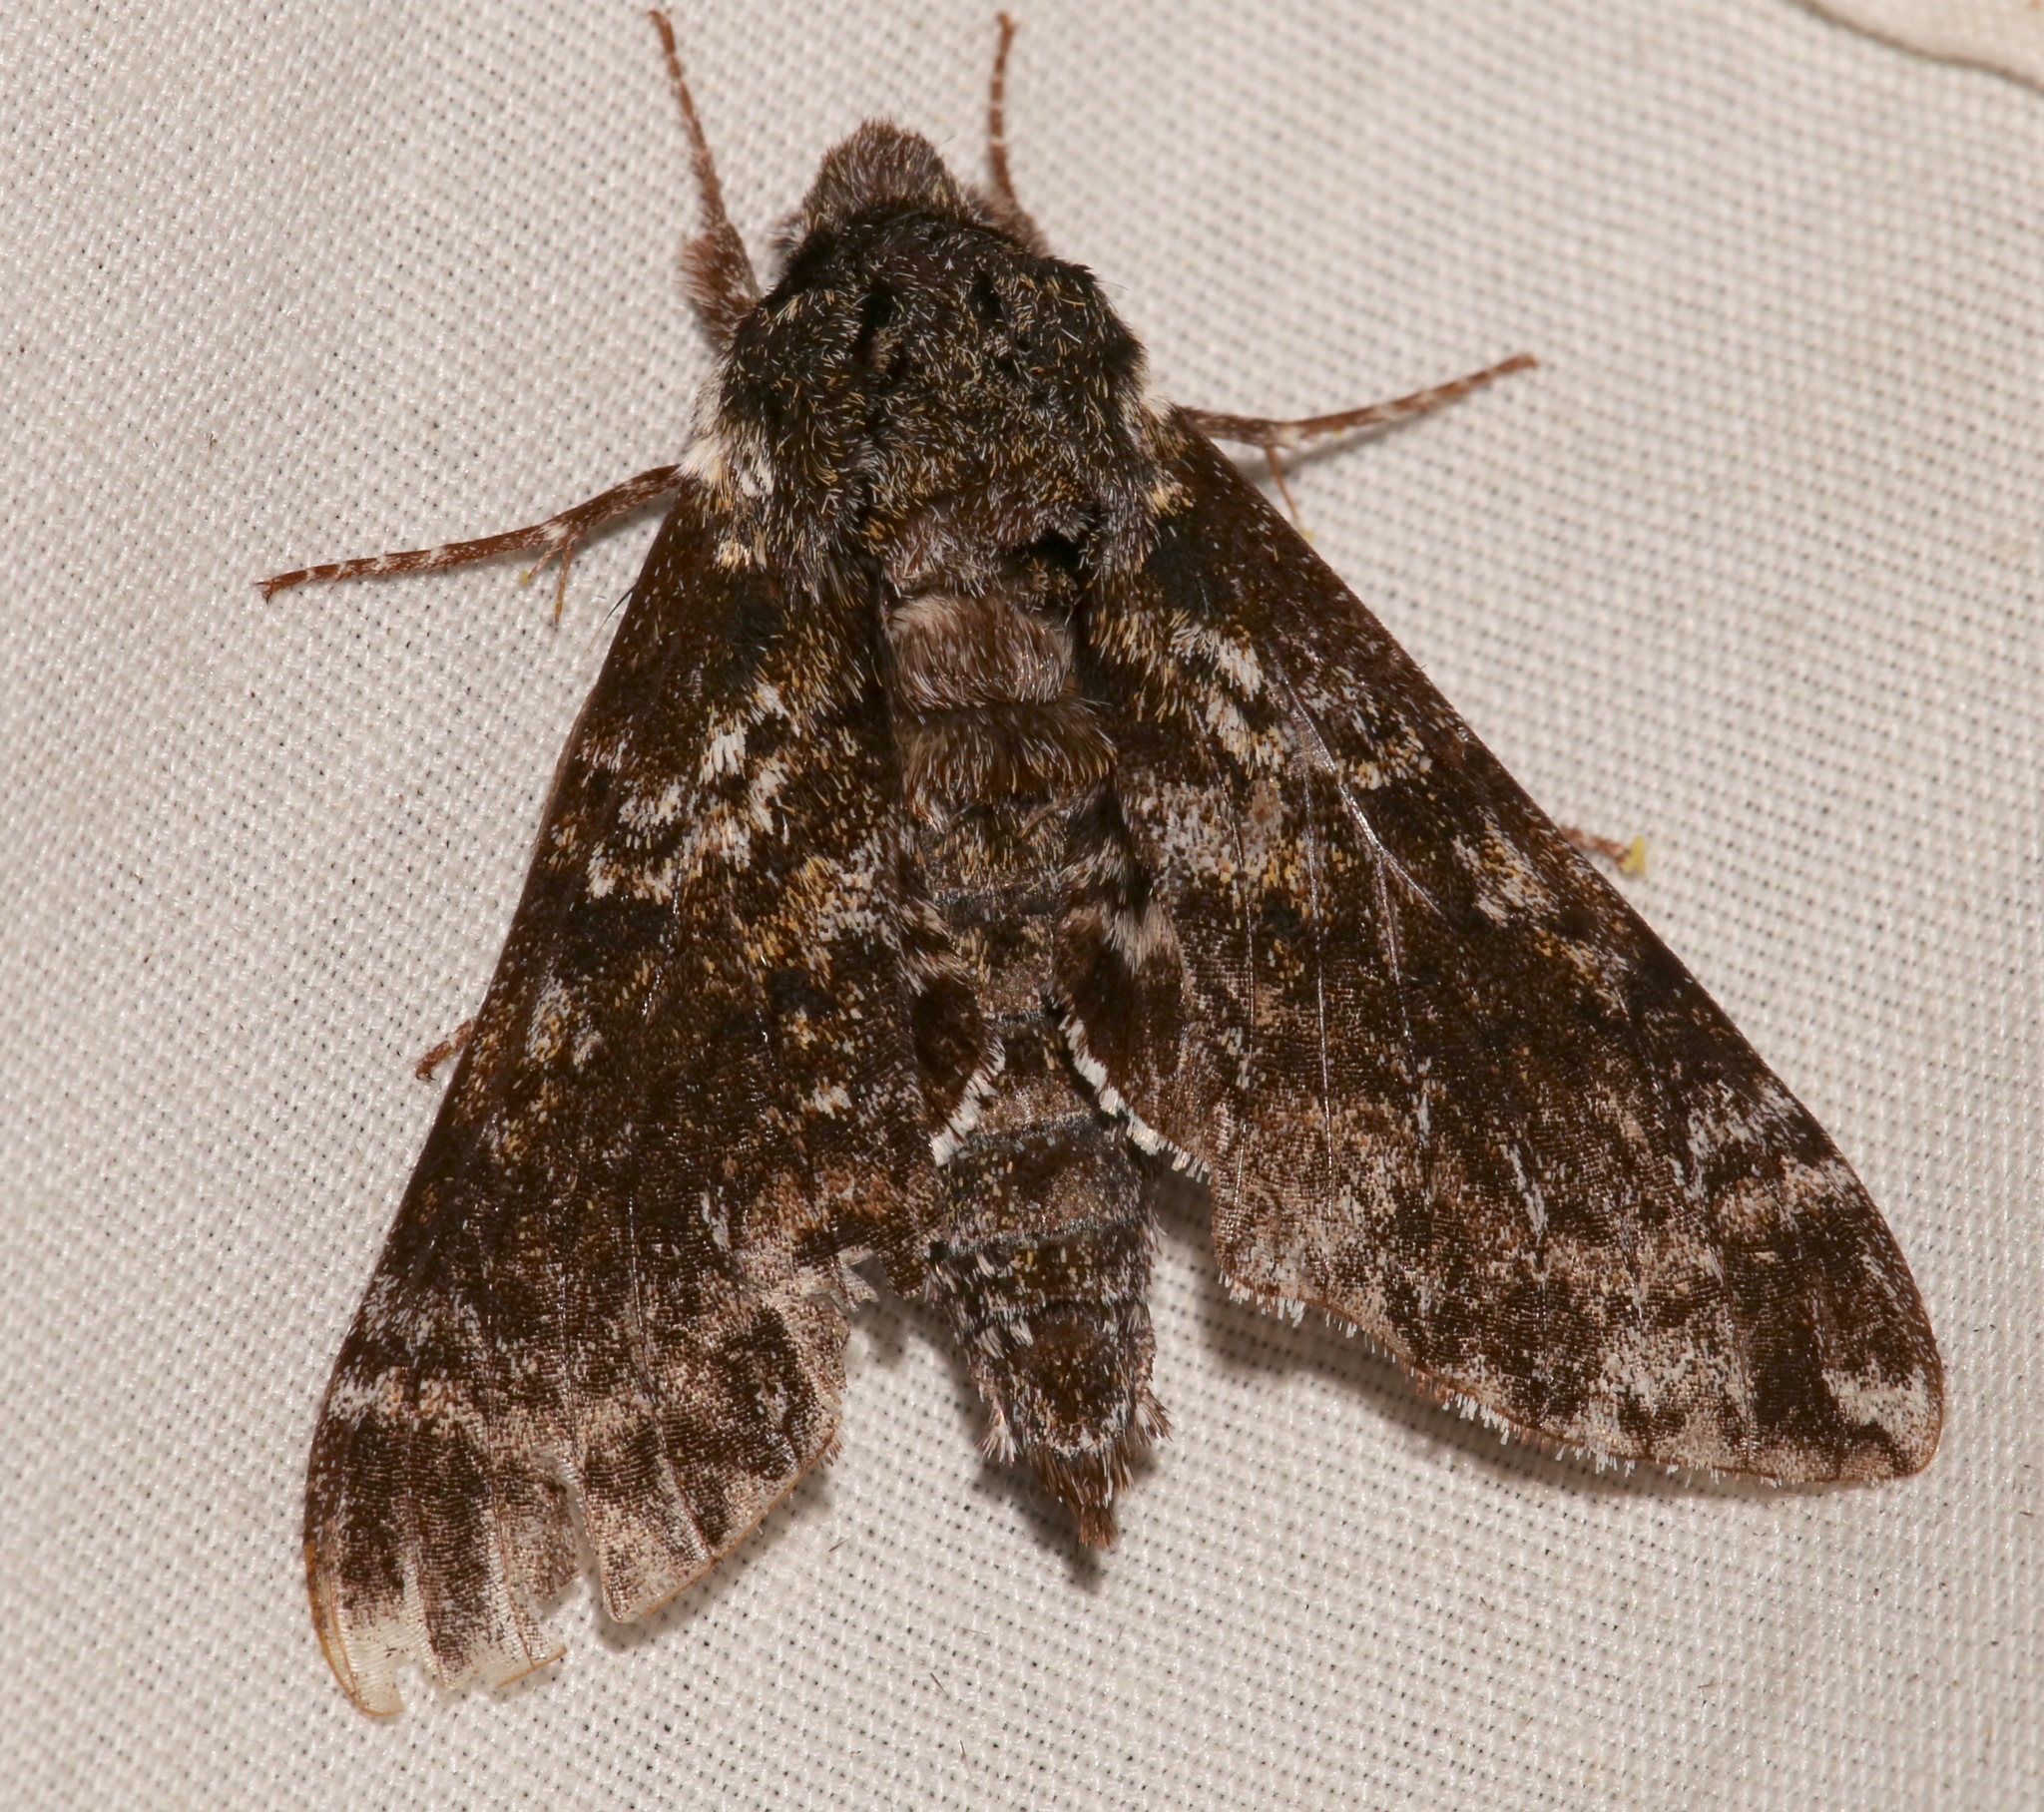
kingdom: Animalia
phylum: Arthropoda
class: Insecta
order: Lepidoptera
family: Sphingidae
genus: Dolba
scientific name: Dolba hyloeus
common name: Pawpaw sphinx
